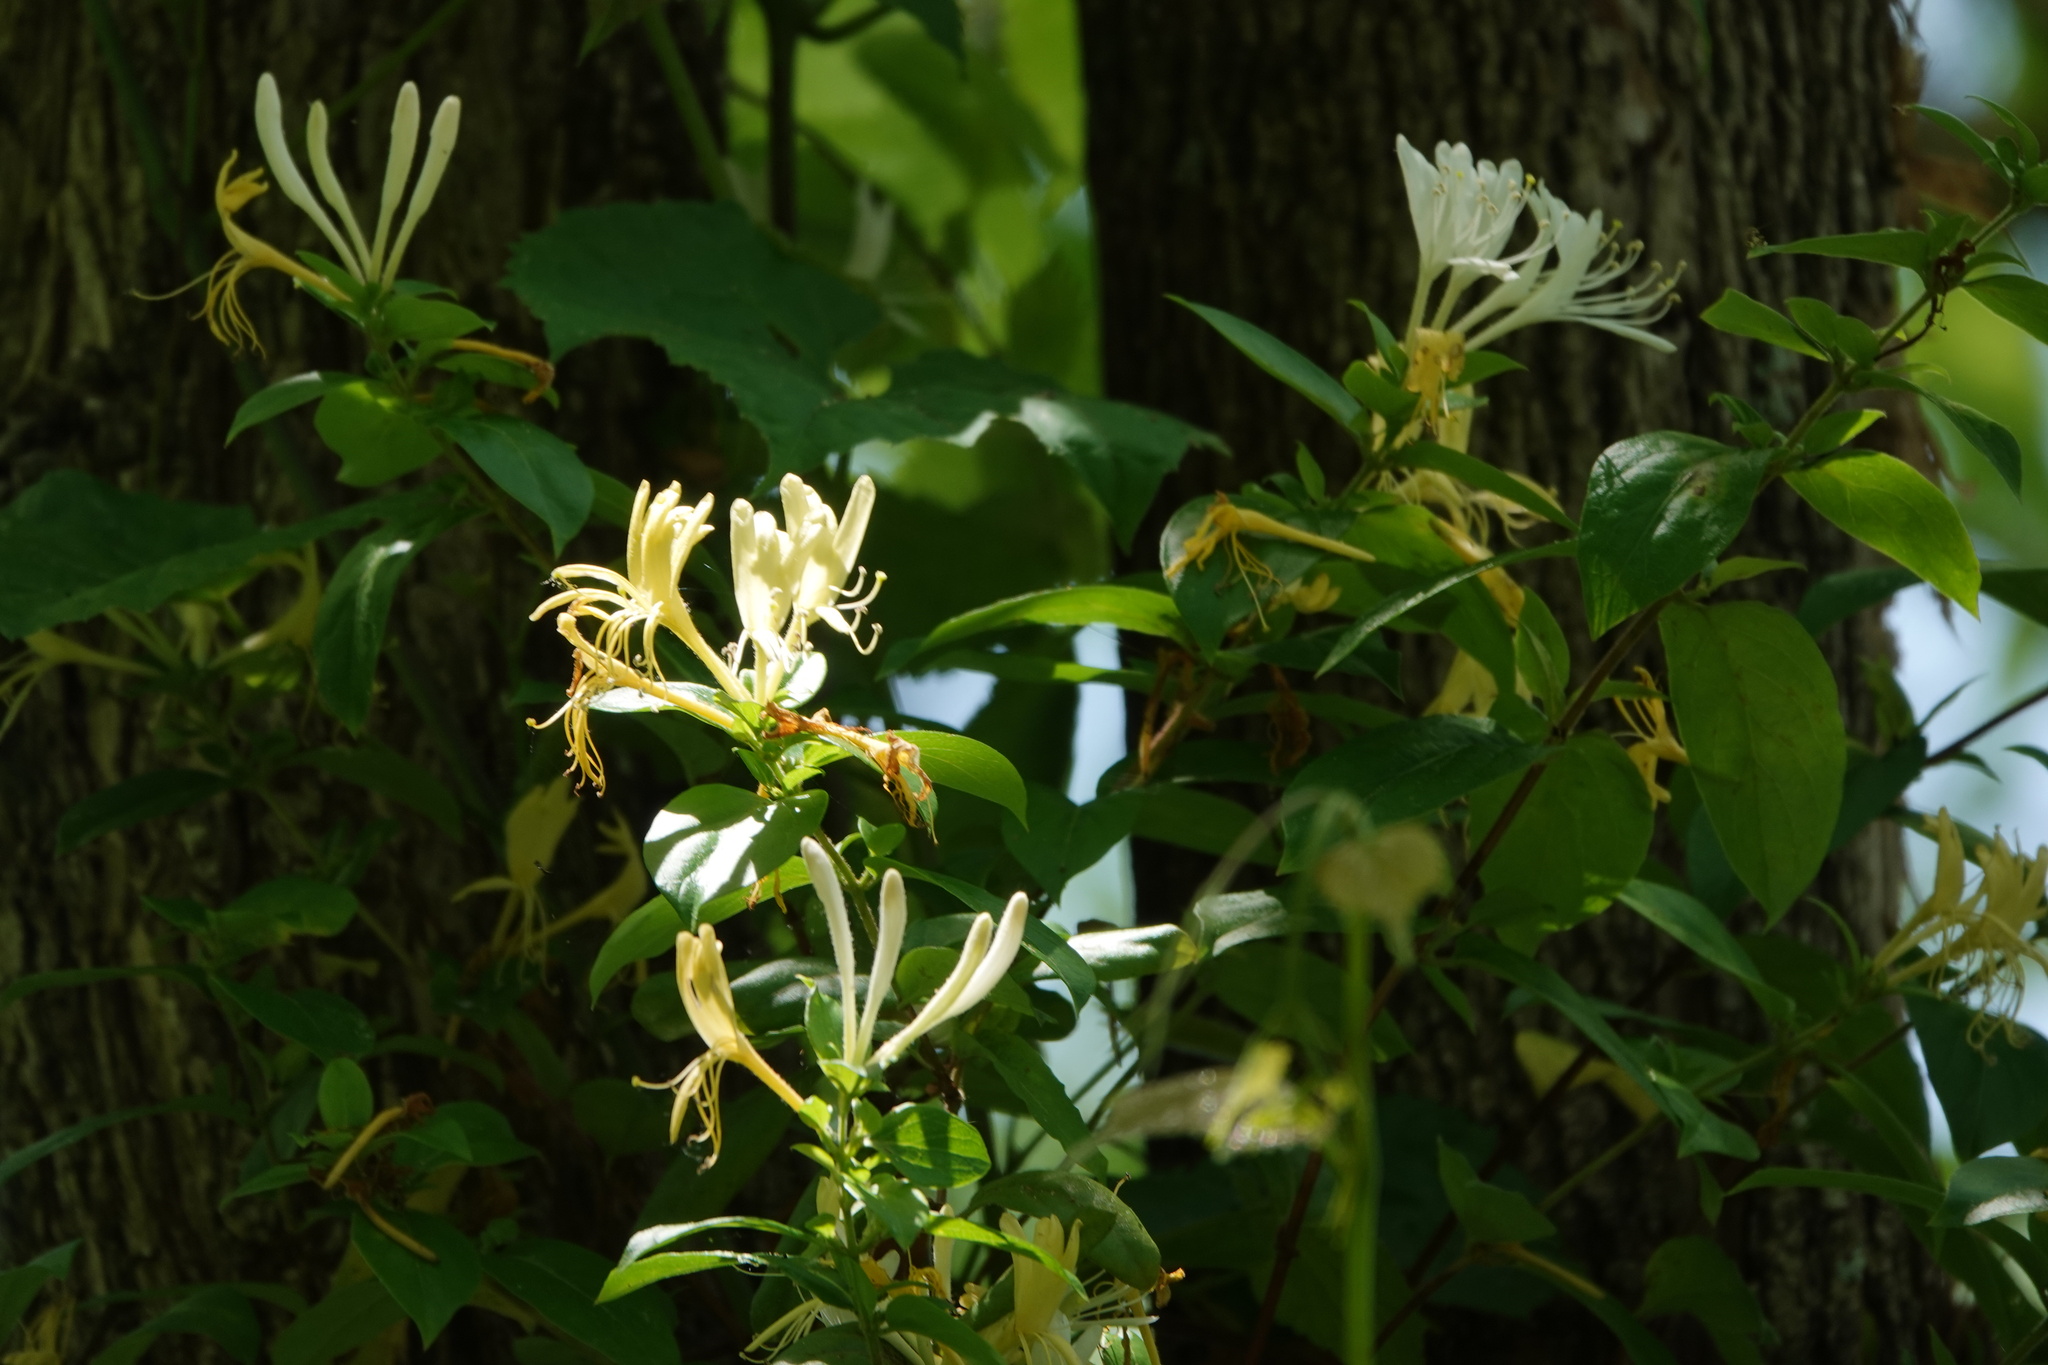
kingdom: Plantae
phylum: Tracheophyta
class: Magnoliopsida
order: Dipsacales
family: Caprifoliaceae
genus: Lonicera
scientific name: Lonicera japonica
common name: Japanese honeysuckle
